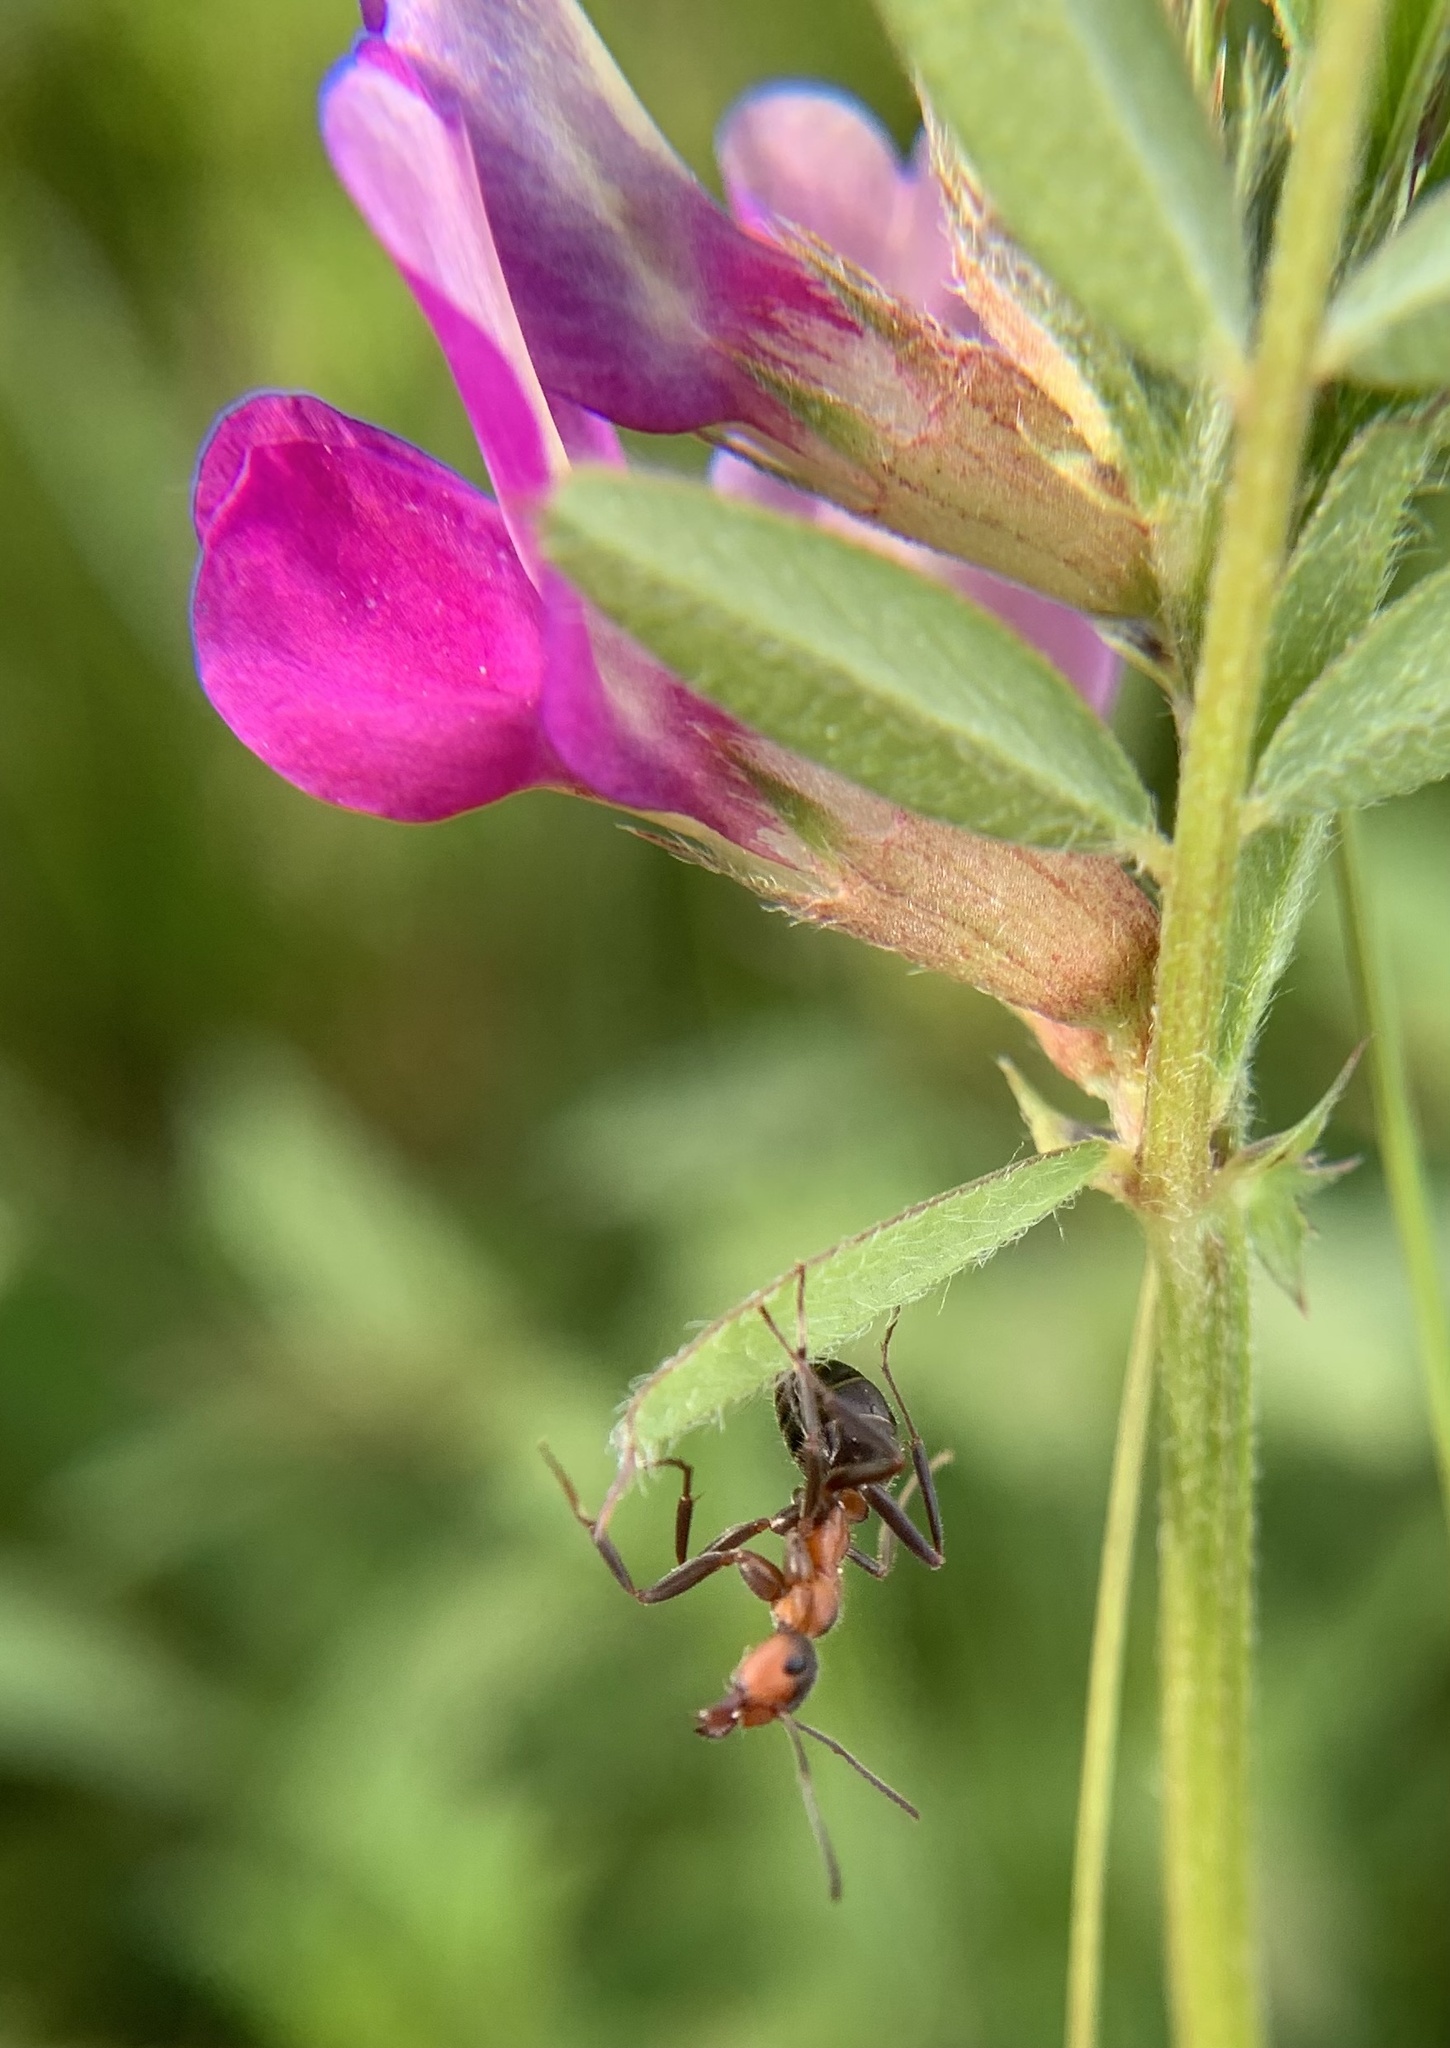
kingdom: Animalia
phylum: Arthropoda
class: Insecta
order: Hymenoptera
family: Formicidae
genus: Formica
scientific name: Formica pratensis
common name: European red wood ant
